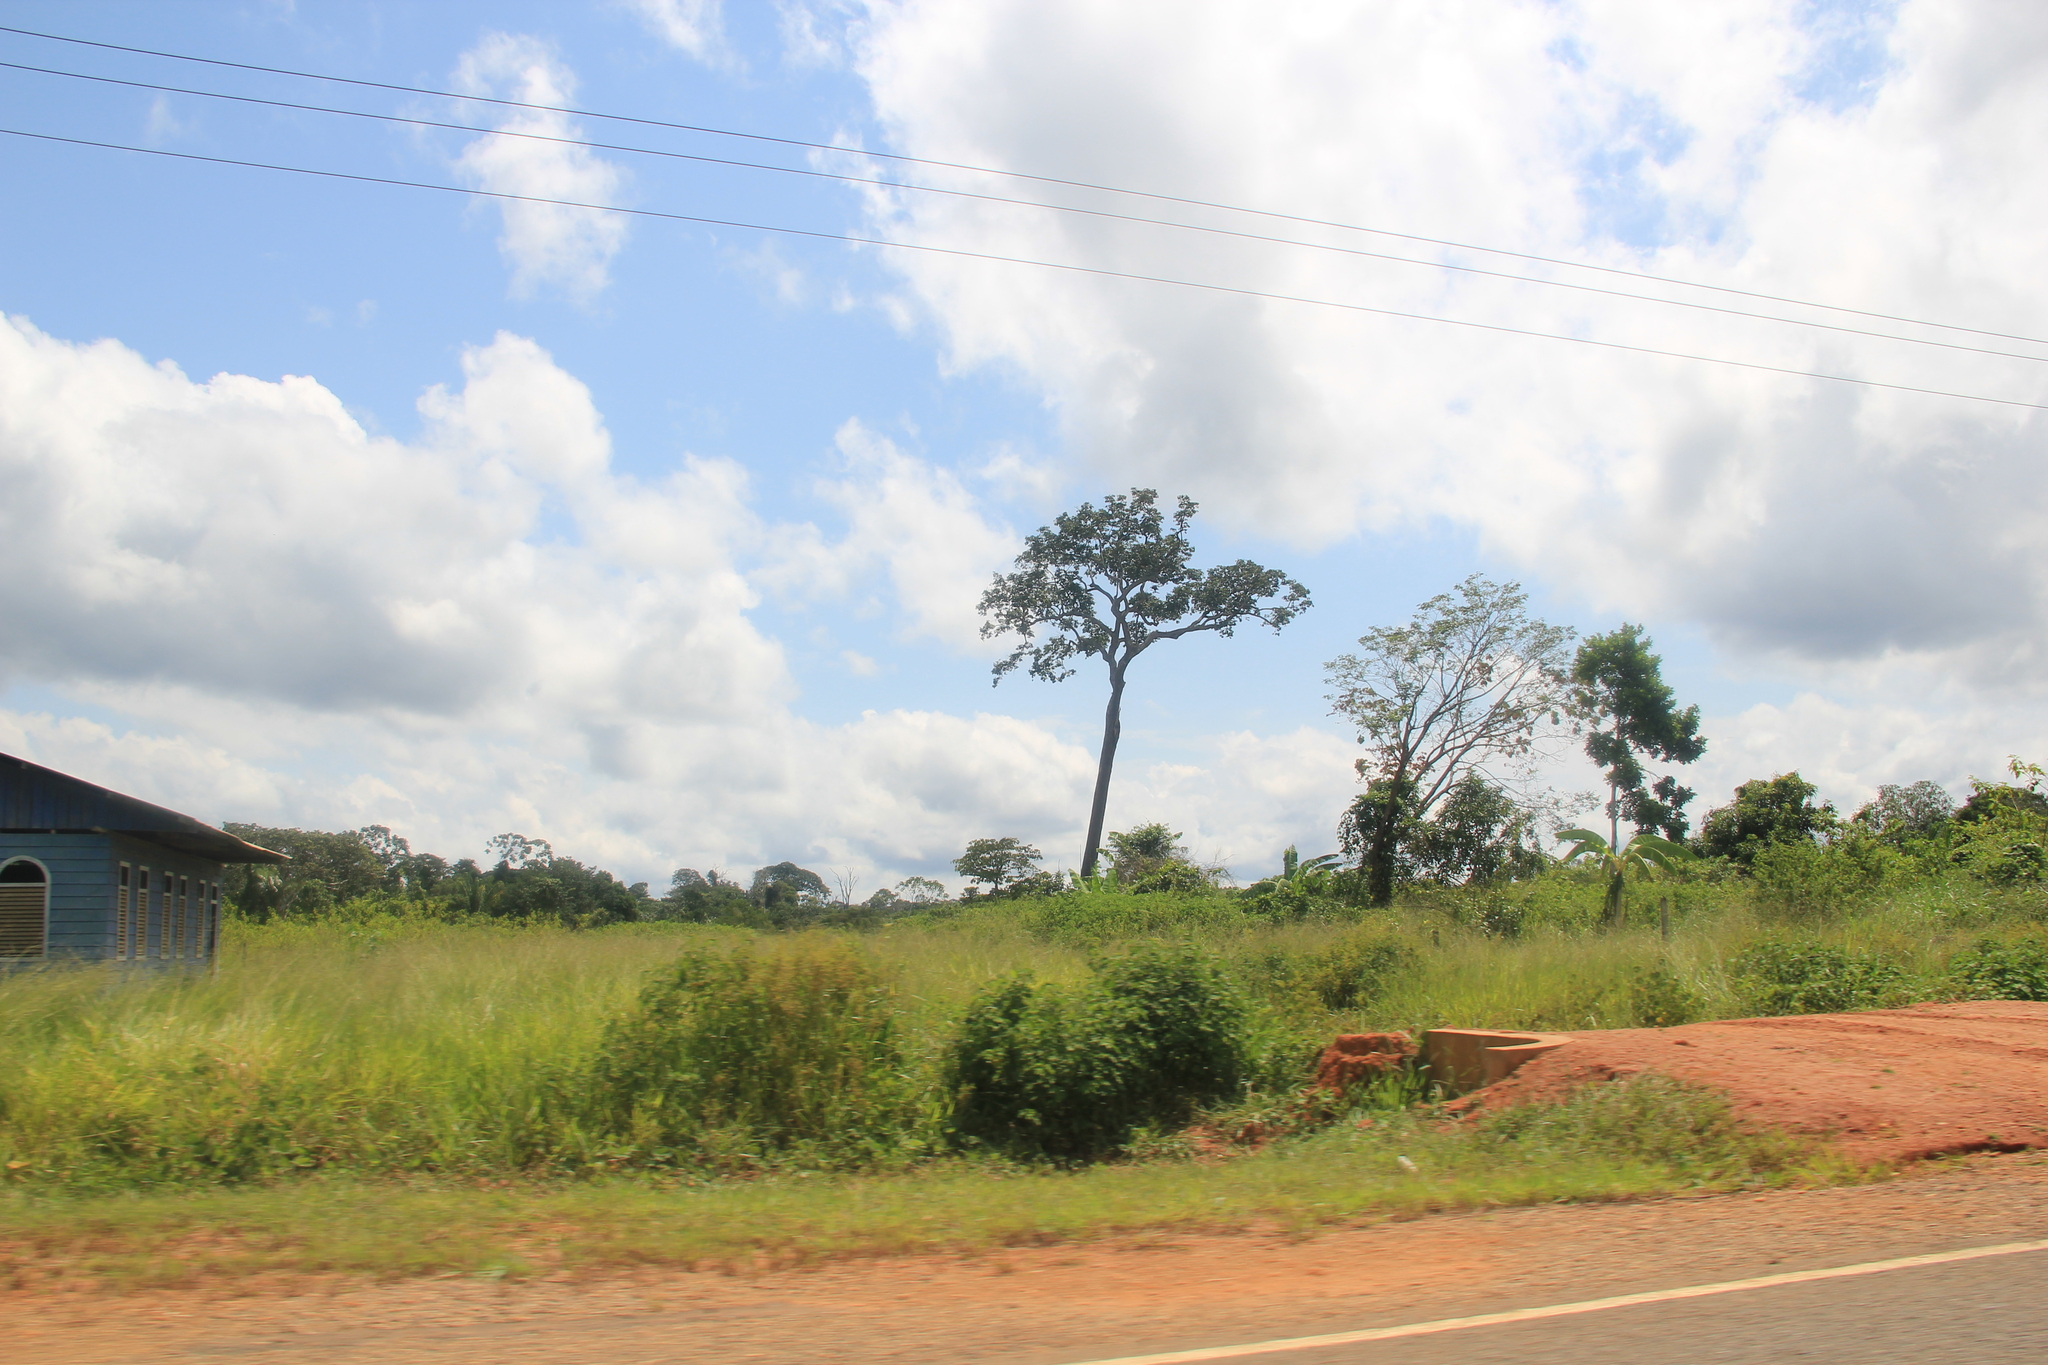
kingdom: Plantae
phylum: Tracheophyta
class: Magnoliopsida
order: Ericales
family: Lecythidaceae
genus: Bertholletia
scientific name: Bertholletia excelsa
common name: Brazil-nut tree
